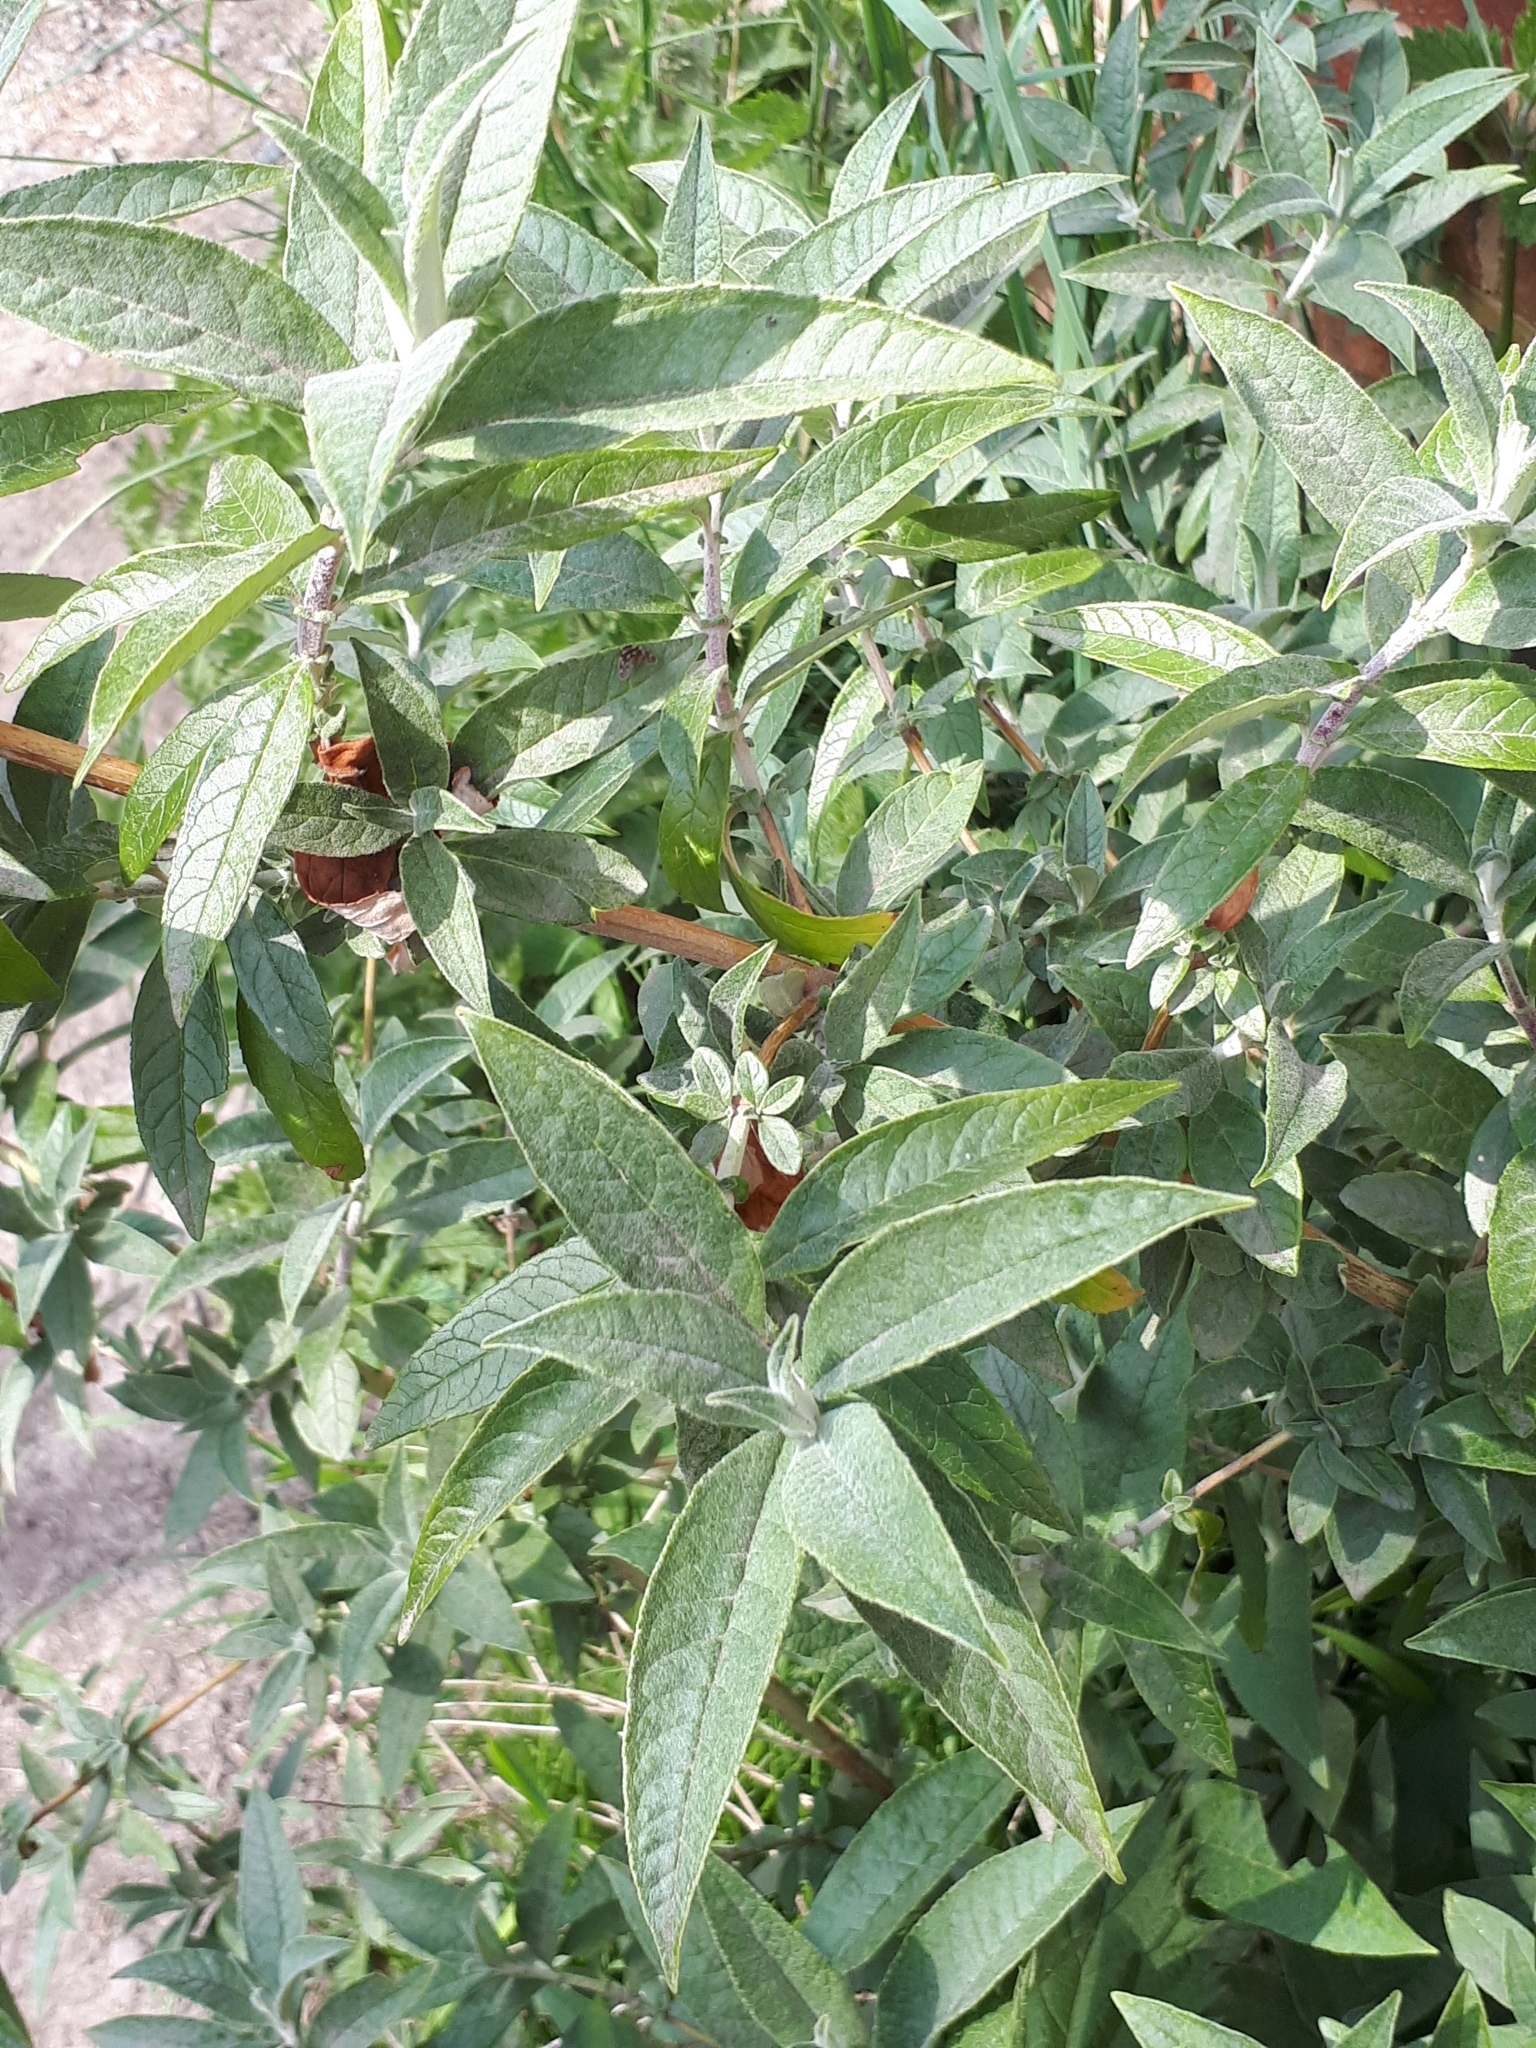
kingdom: Plantae
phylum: Tracheophyta
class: Magnoliopsida
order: Lamiales
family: Scrophulariaceae
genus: Buddleja
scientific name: Buddleja davidii
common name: Butterfly-bush
